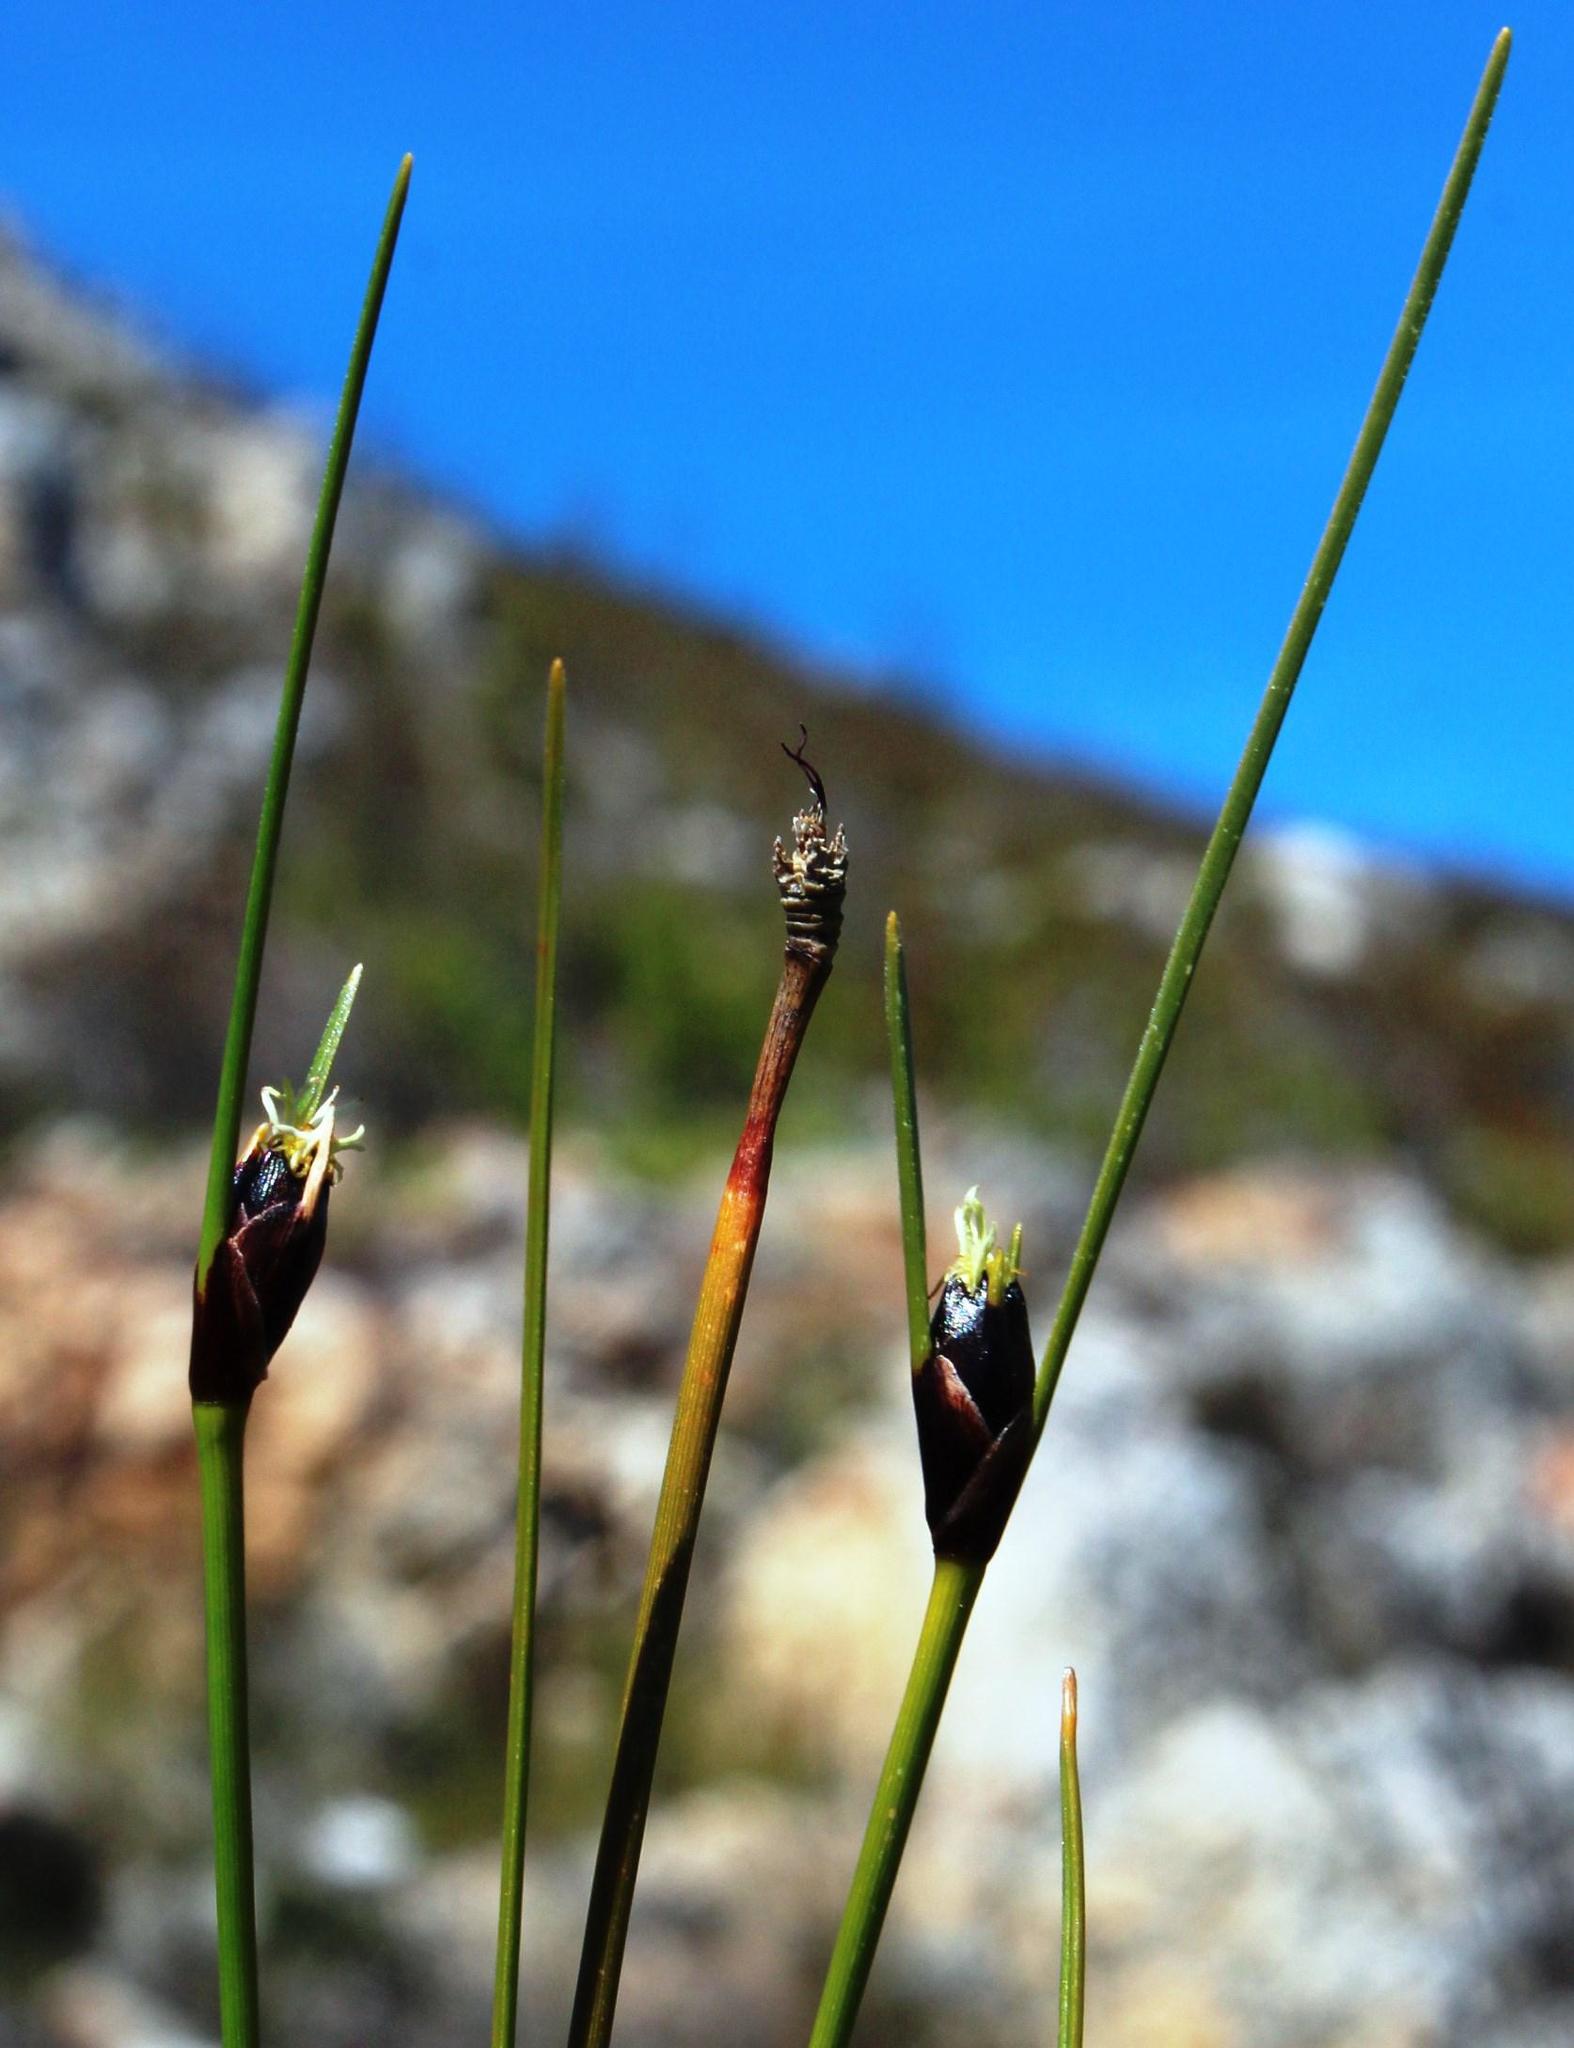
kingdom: Plantae
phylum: Tracheophyta
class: Liliopsida
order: Poales
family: Cyperaceae
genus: Ficinia
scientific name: Ficinia levynsiae
